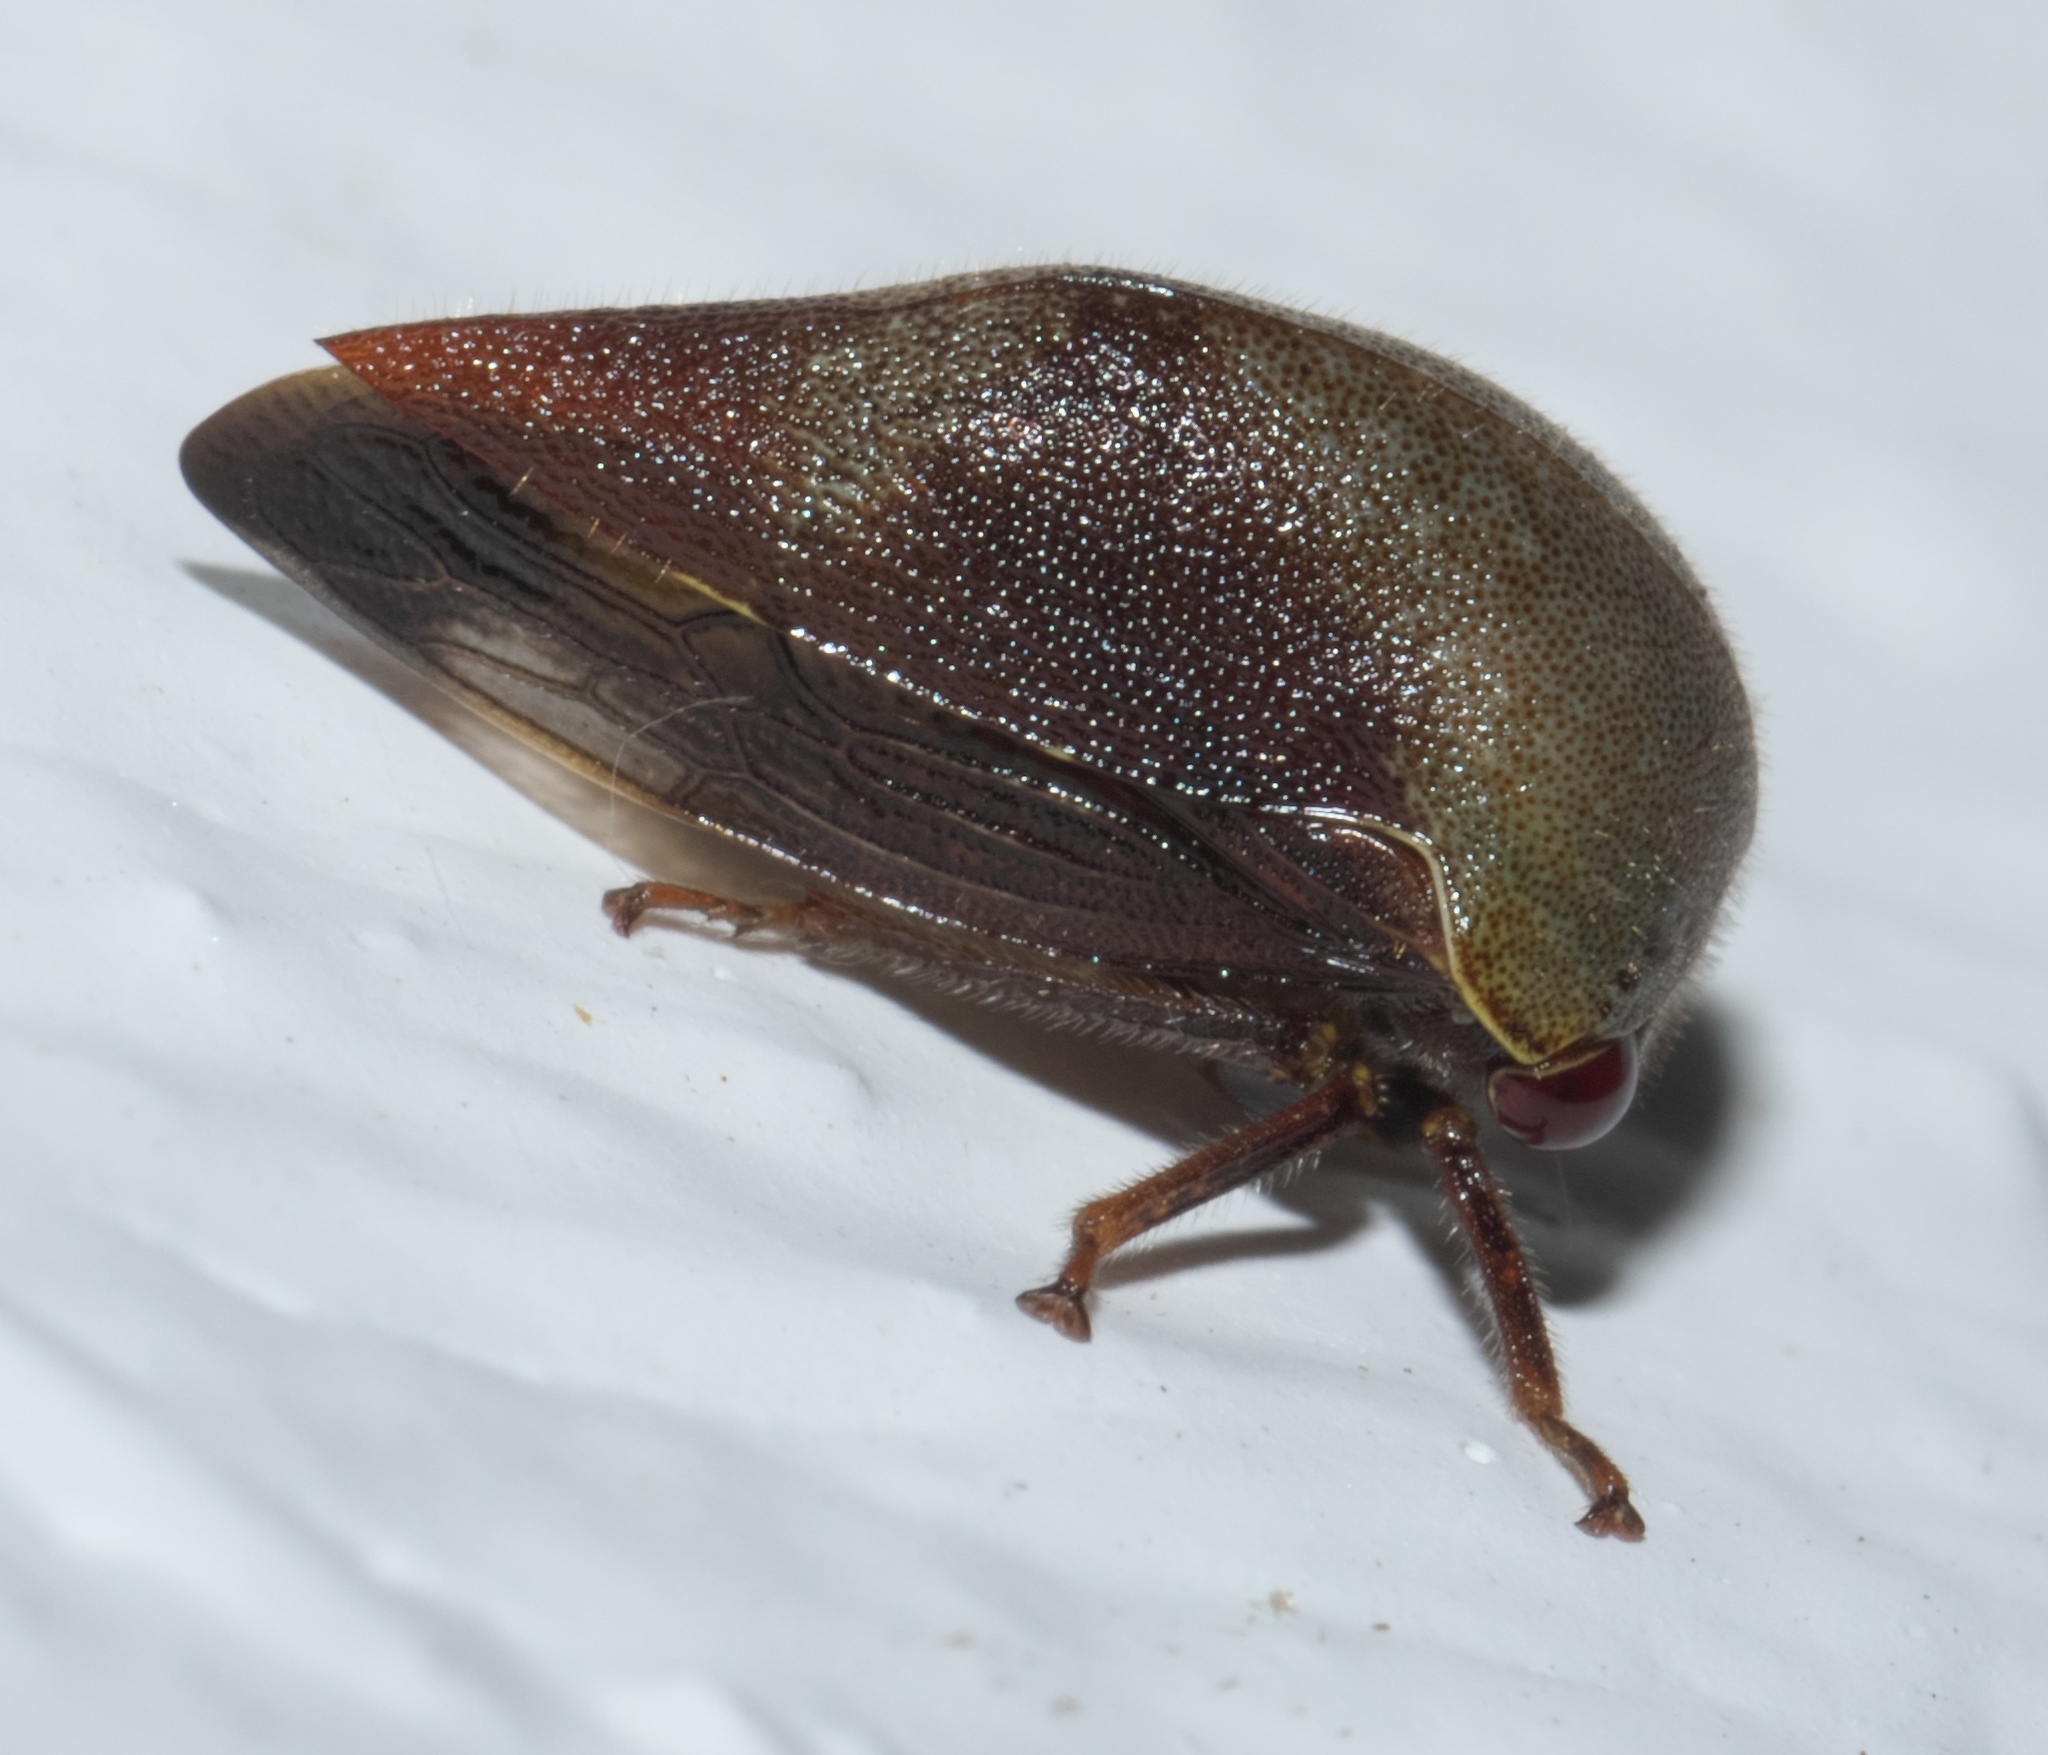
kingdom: Animalia
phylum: Arthropoda
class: Insecta
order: Hemiptera
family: Membracidae
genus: Carynota
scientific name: Carynota mera
